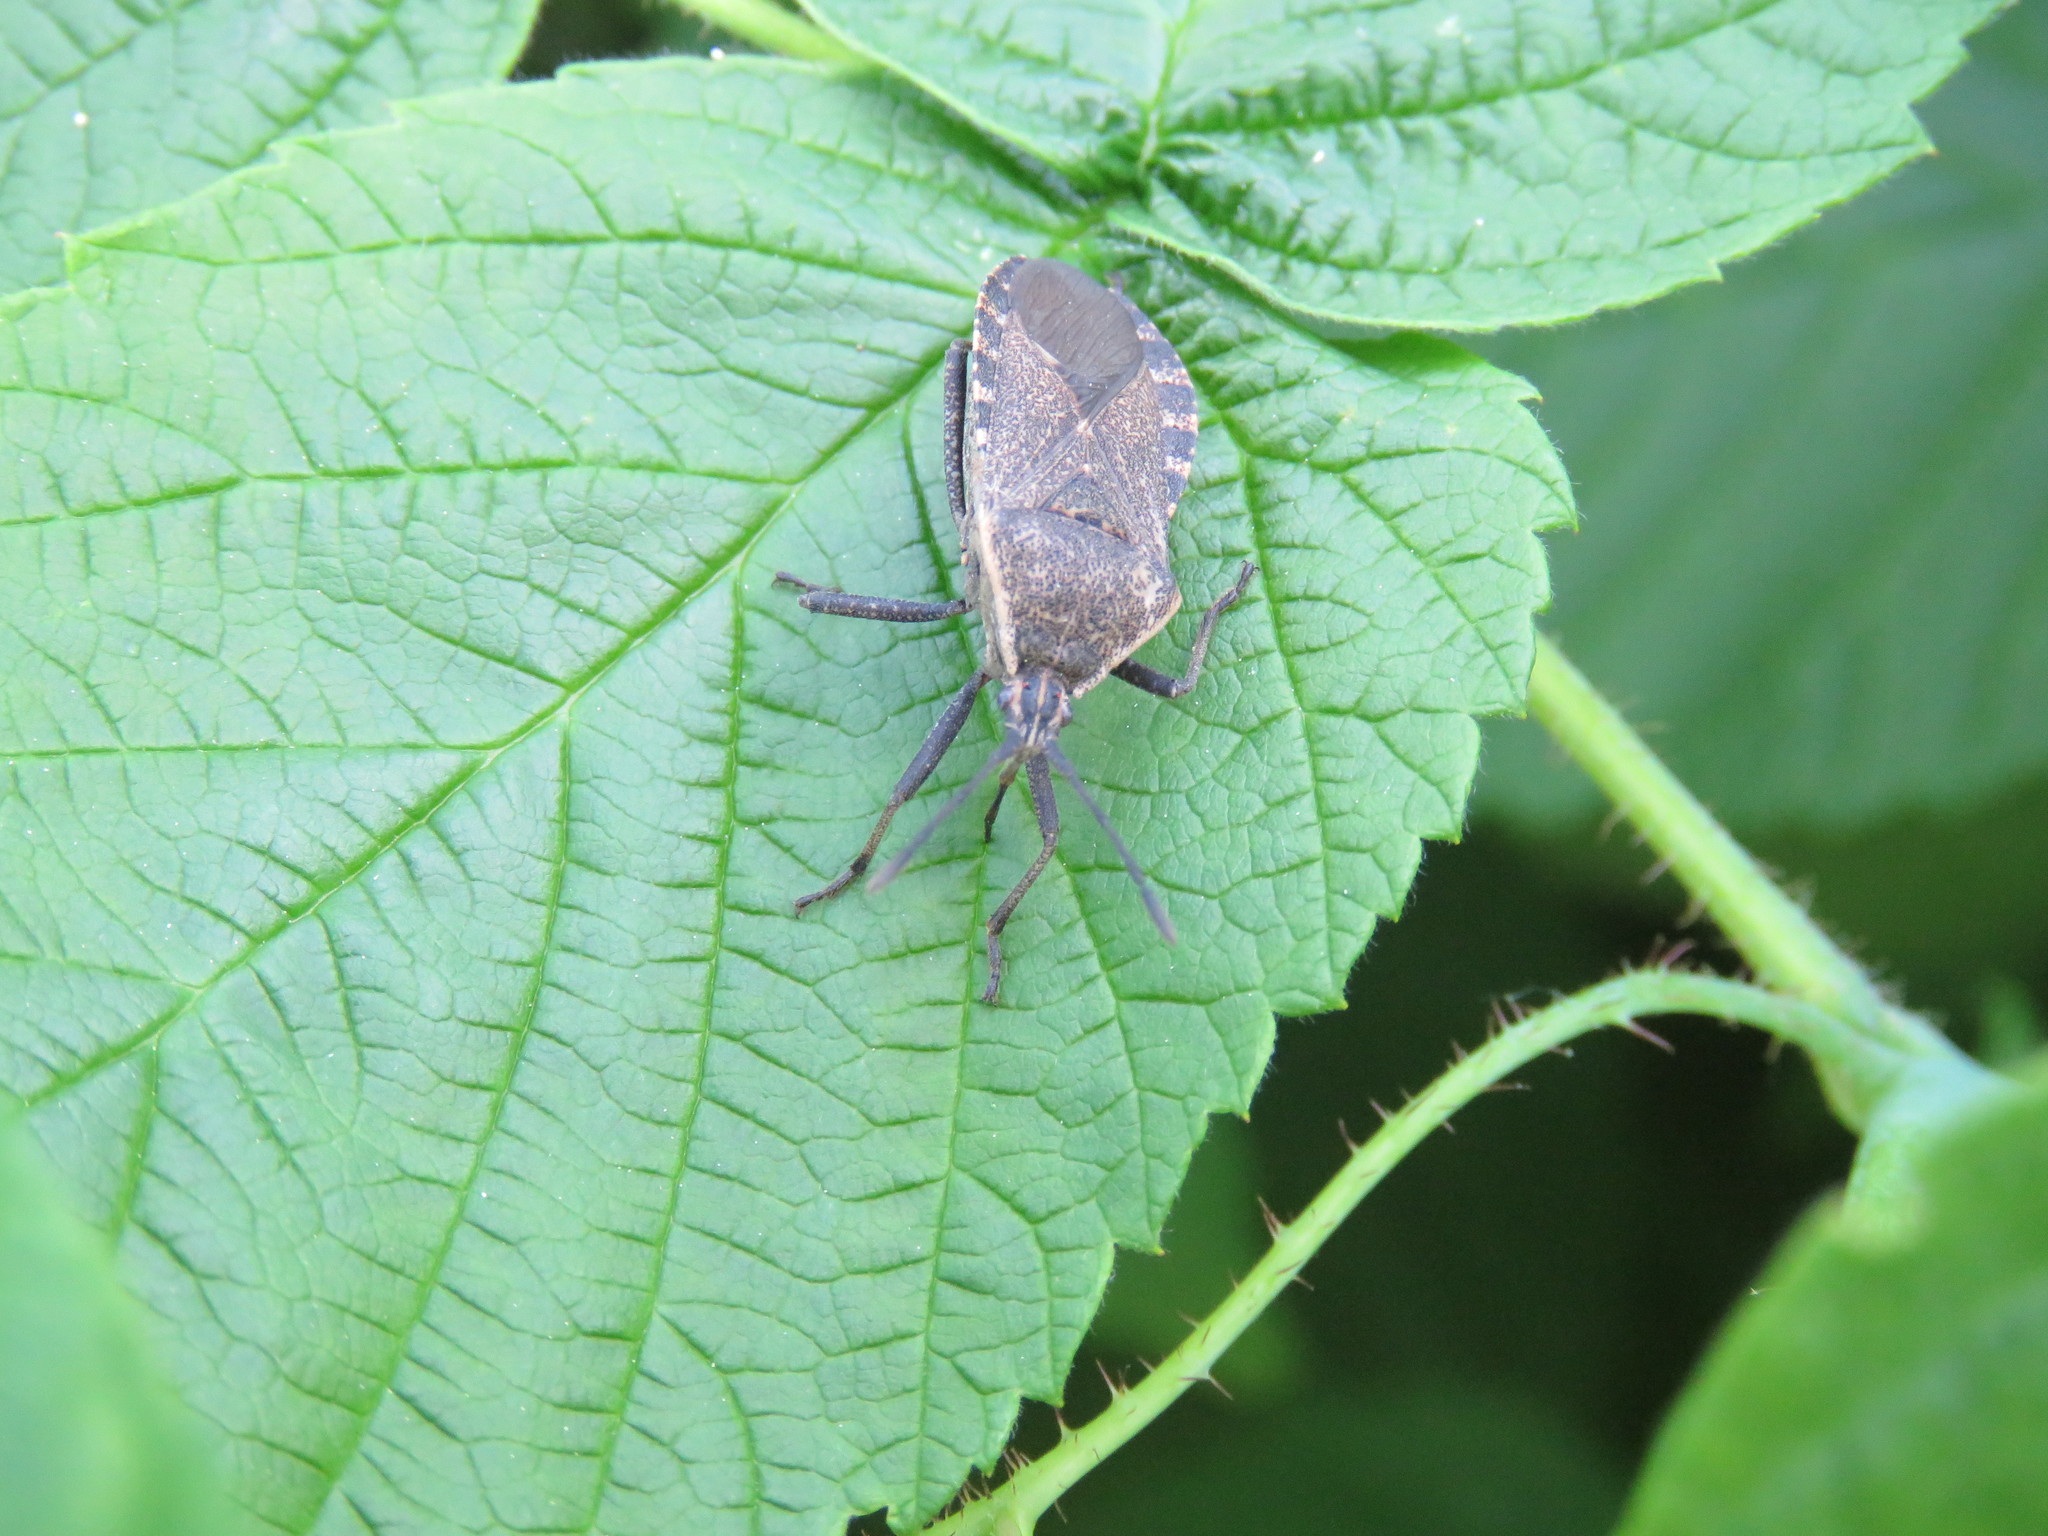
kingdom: Animalia
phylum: Arthropoda
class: Insecta
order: Hemiptera
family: Coreidae
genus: Anasa
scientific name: Anasa tristis
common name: Squash bug
